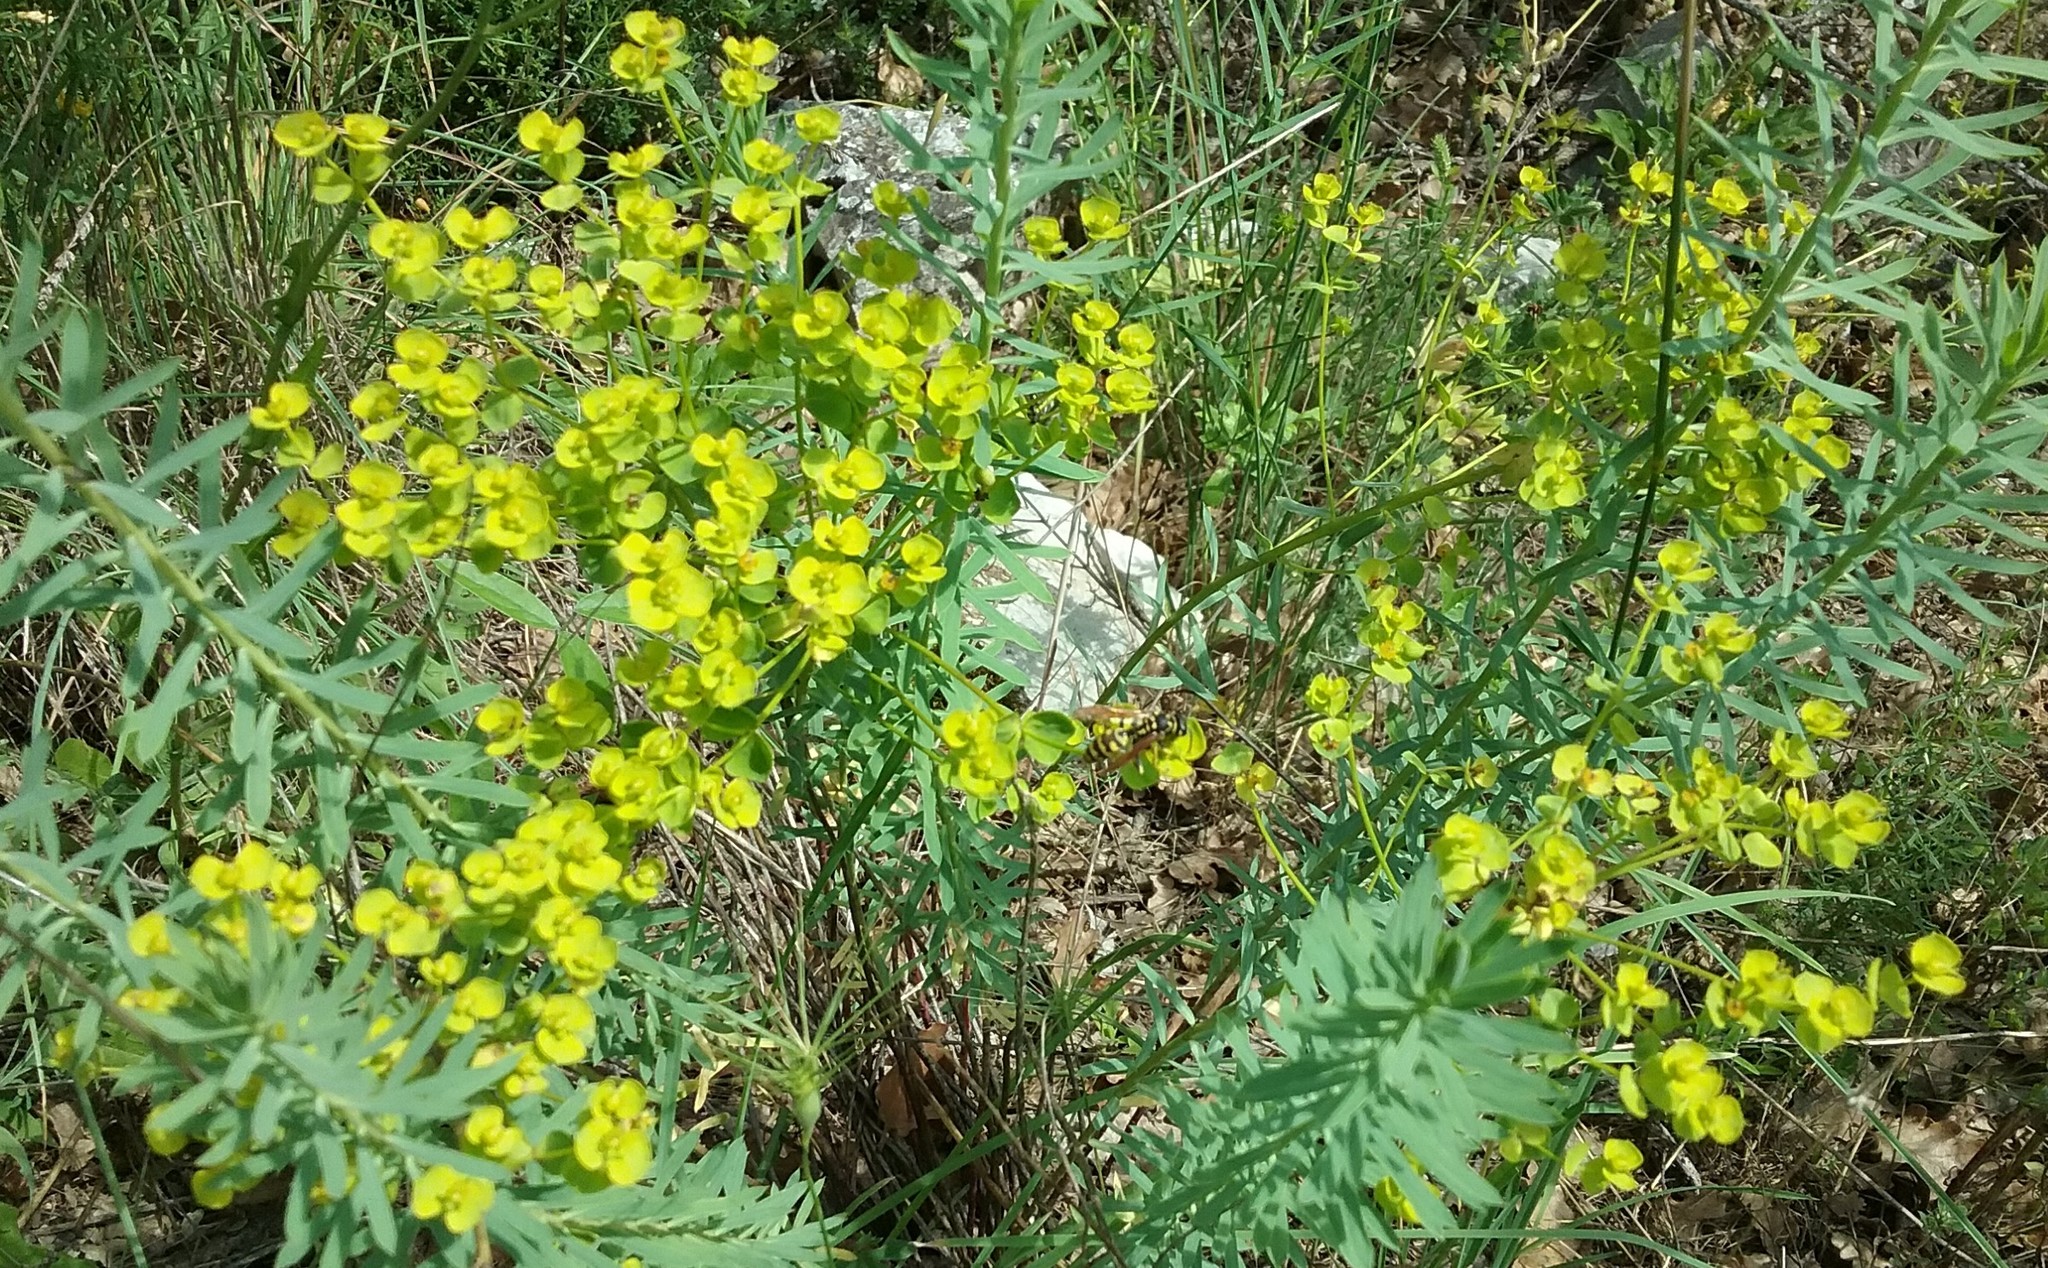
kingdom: Plantae
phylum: Tracheophyta
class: Magnoliopsida
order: Malpighiales
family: Euphorbiaceae
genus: Euphorbia
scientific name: Euphorbia cyparissias
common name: Cypress spurge
